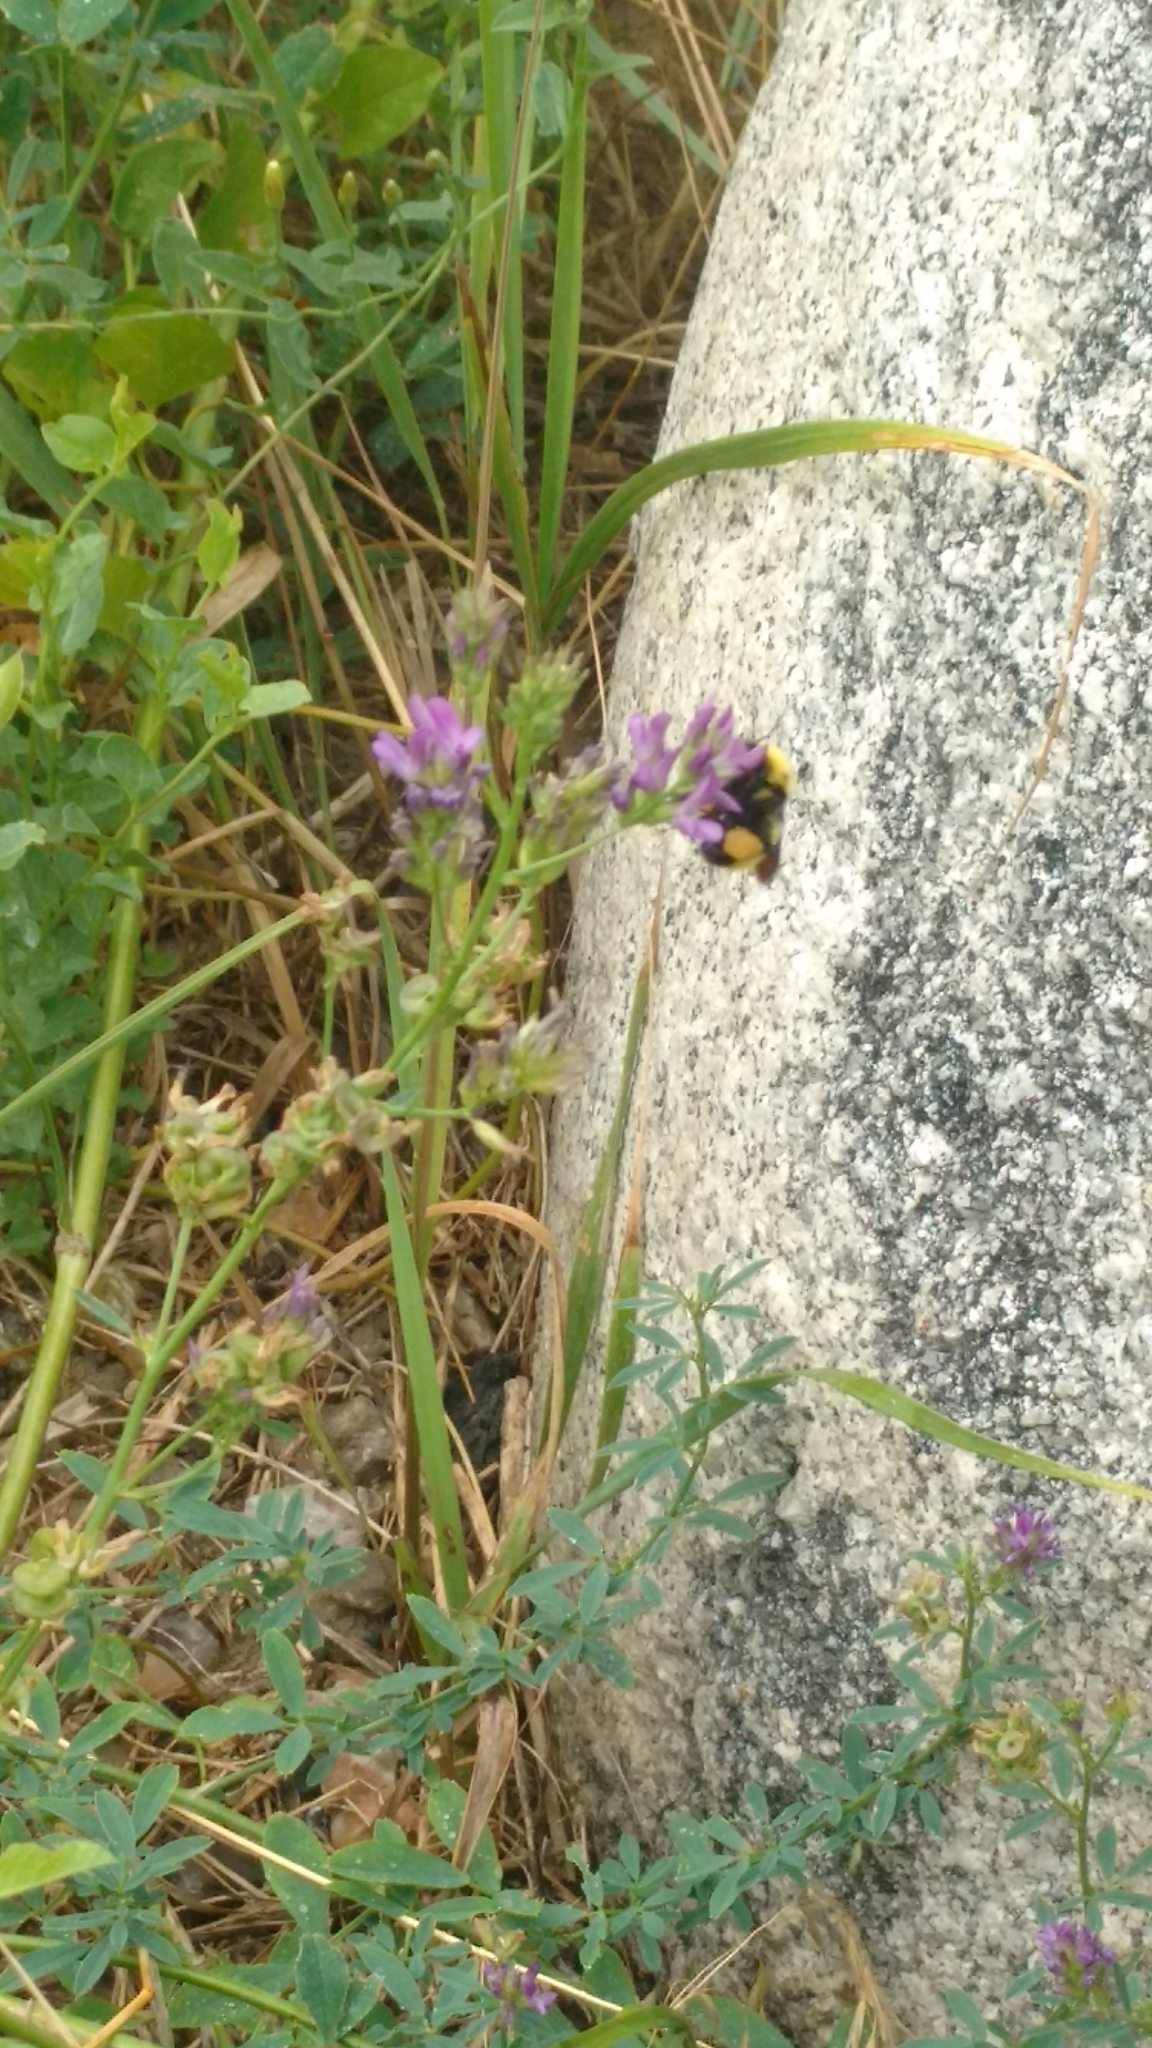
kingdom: Animalia
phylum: Arthropoda
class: Insecta
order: Hymenoptera
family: Apidae
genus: Bombus
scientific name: Bombus fervidus
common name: Yellow bumble bee
